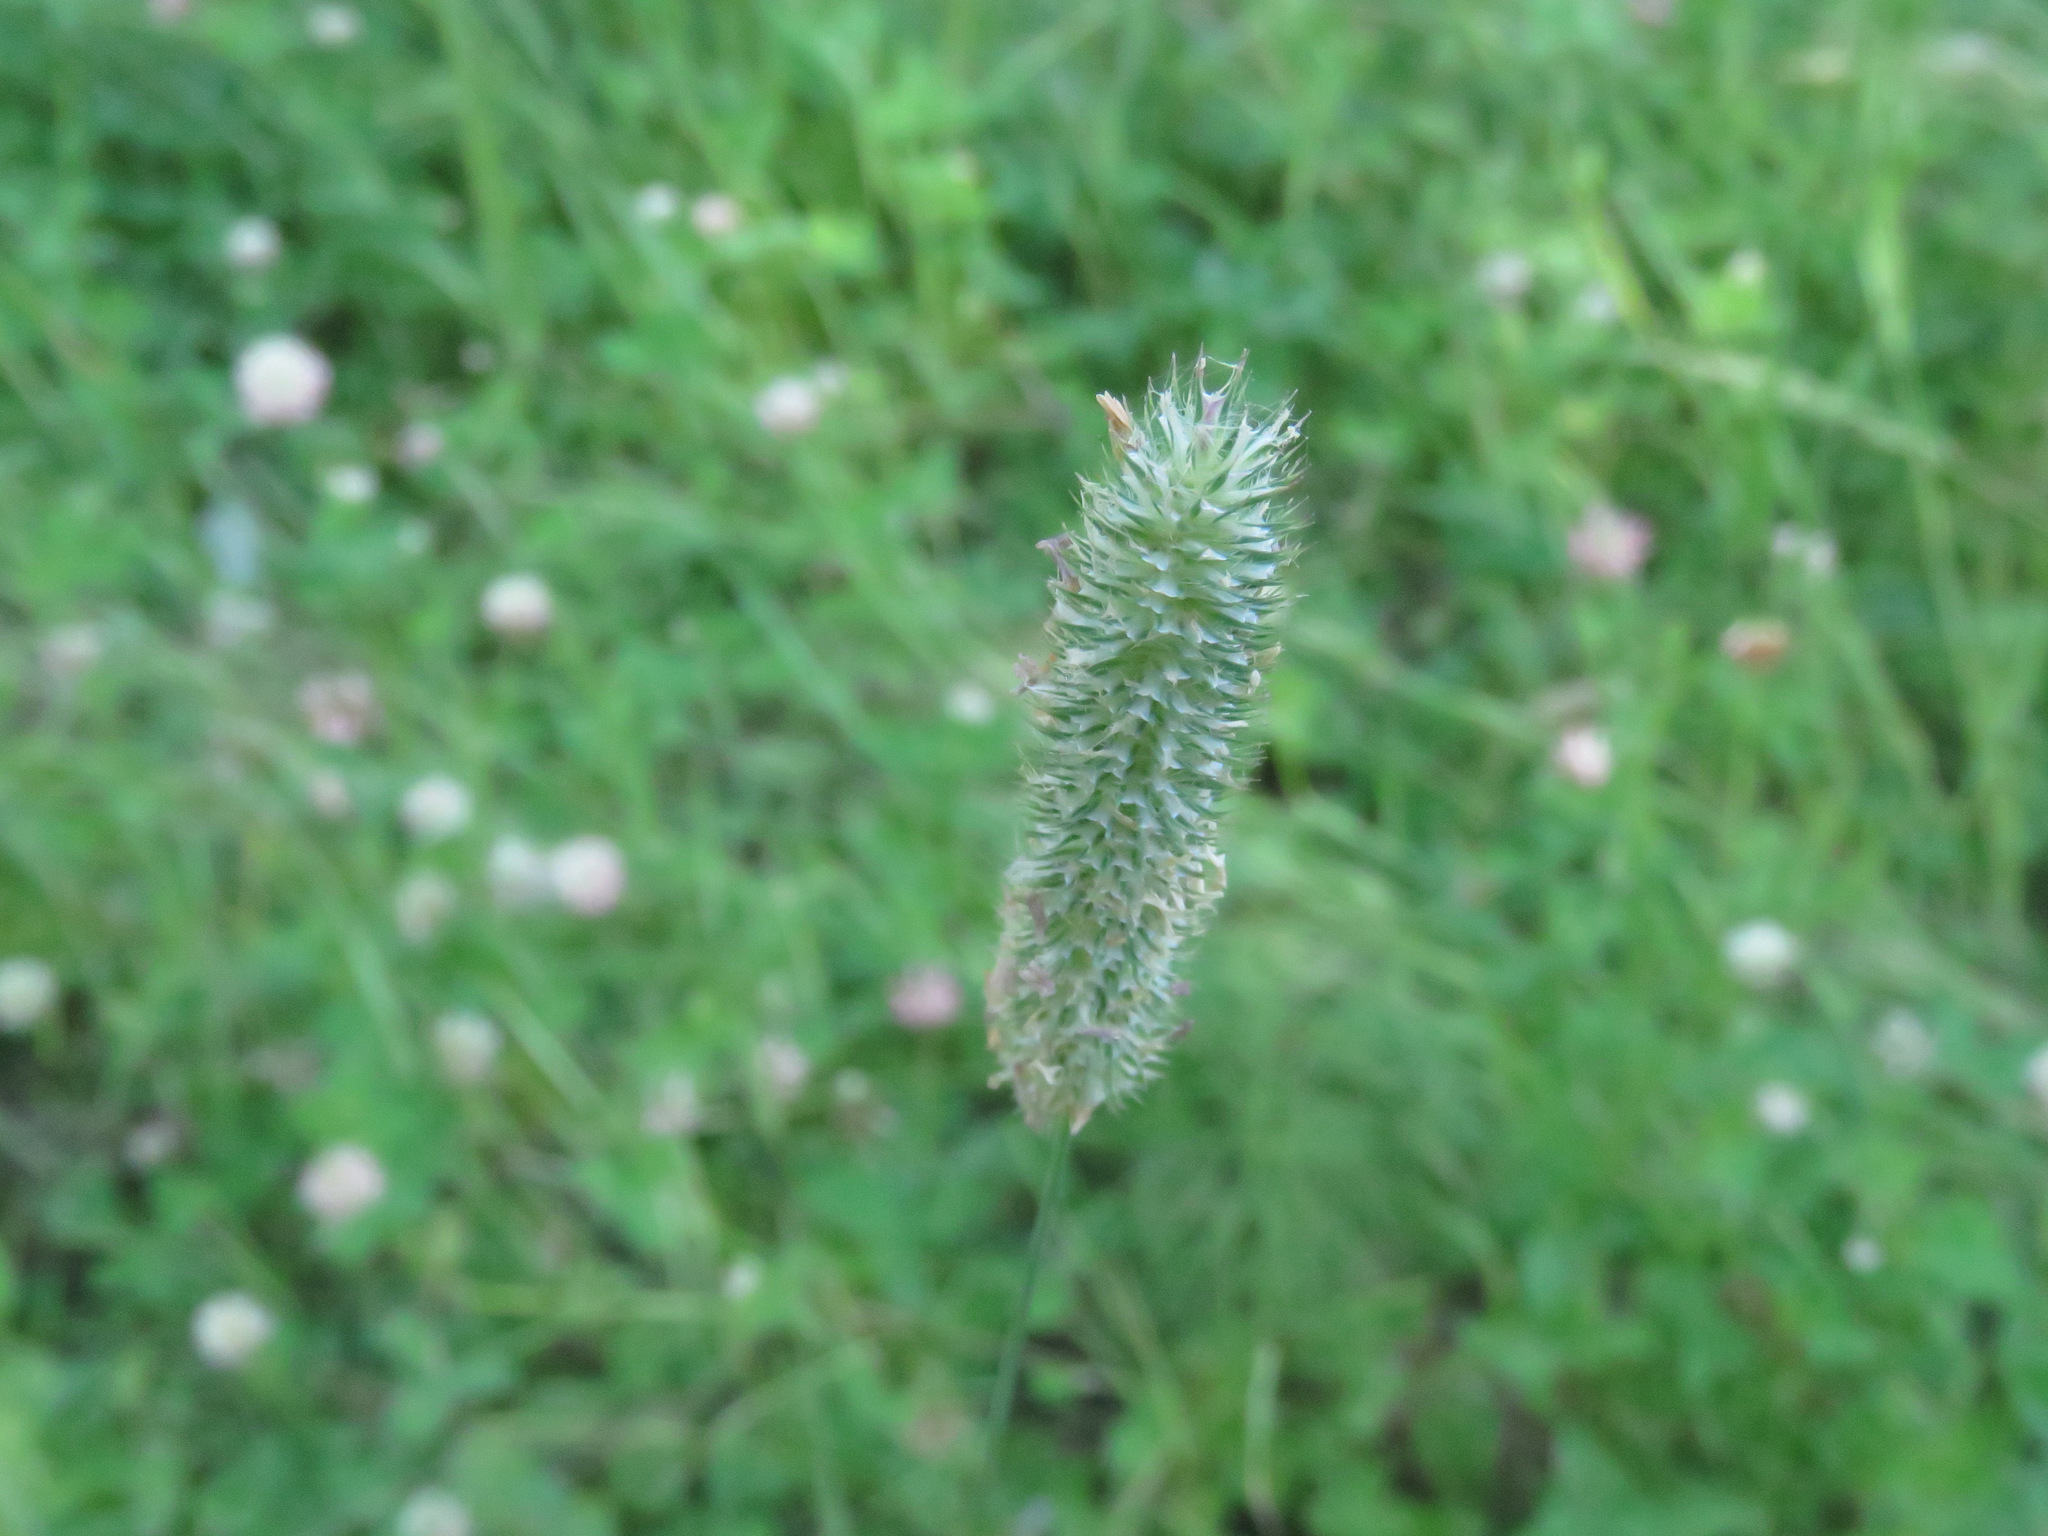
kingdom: Plantae
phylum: Tracheophyta
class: Liliopsida
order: Poales
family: Poaceae
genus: Phleum
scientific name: Phleum pratense
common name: Timothy grass
